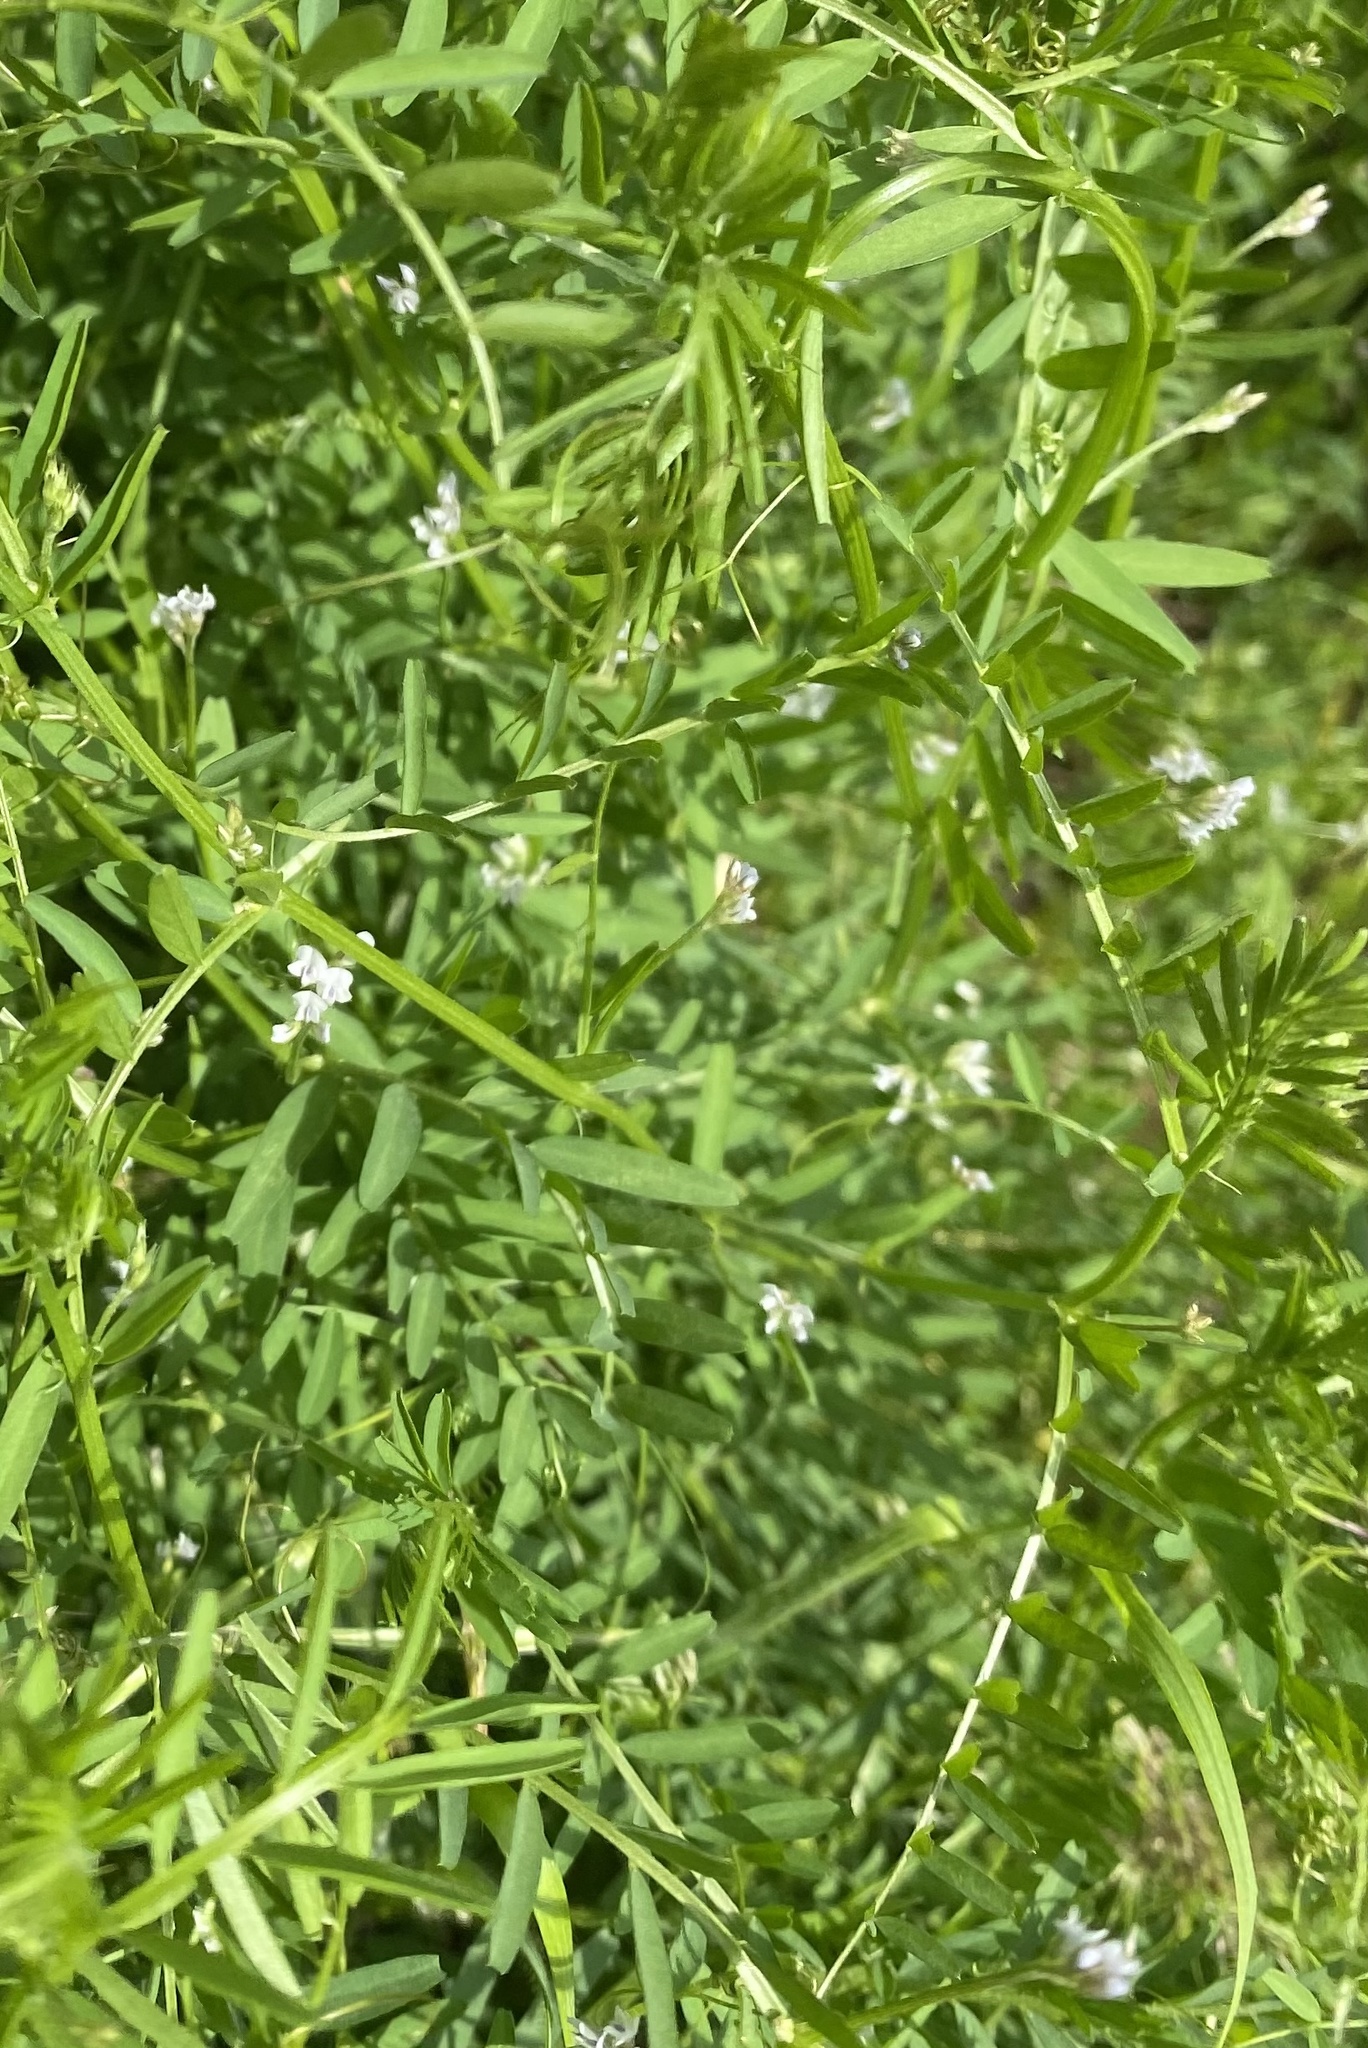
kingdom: Plantae
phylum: Tracheophyta
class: Magnoliopsida
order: Fabales
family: Fabaceae
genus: Vicia
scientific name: Vicia hirsuta
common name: Tiny vetch
